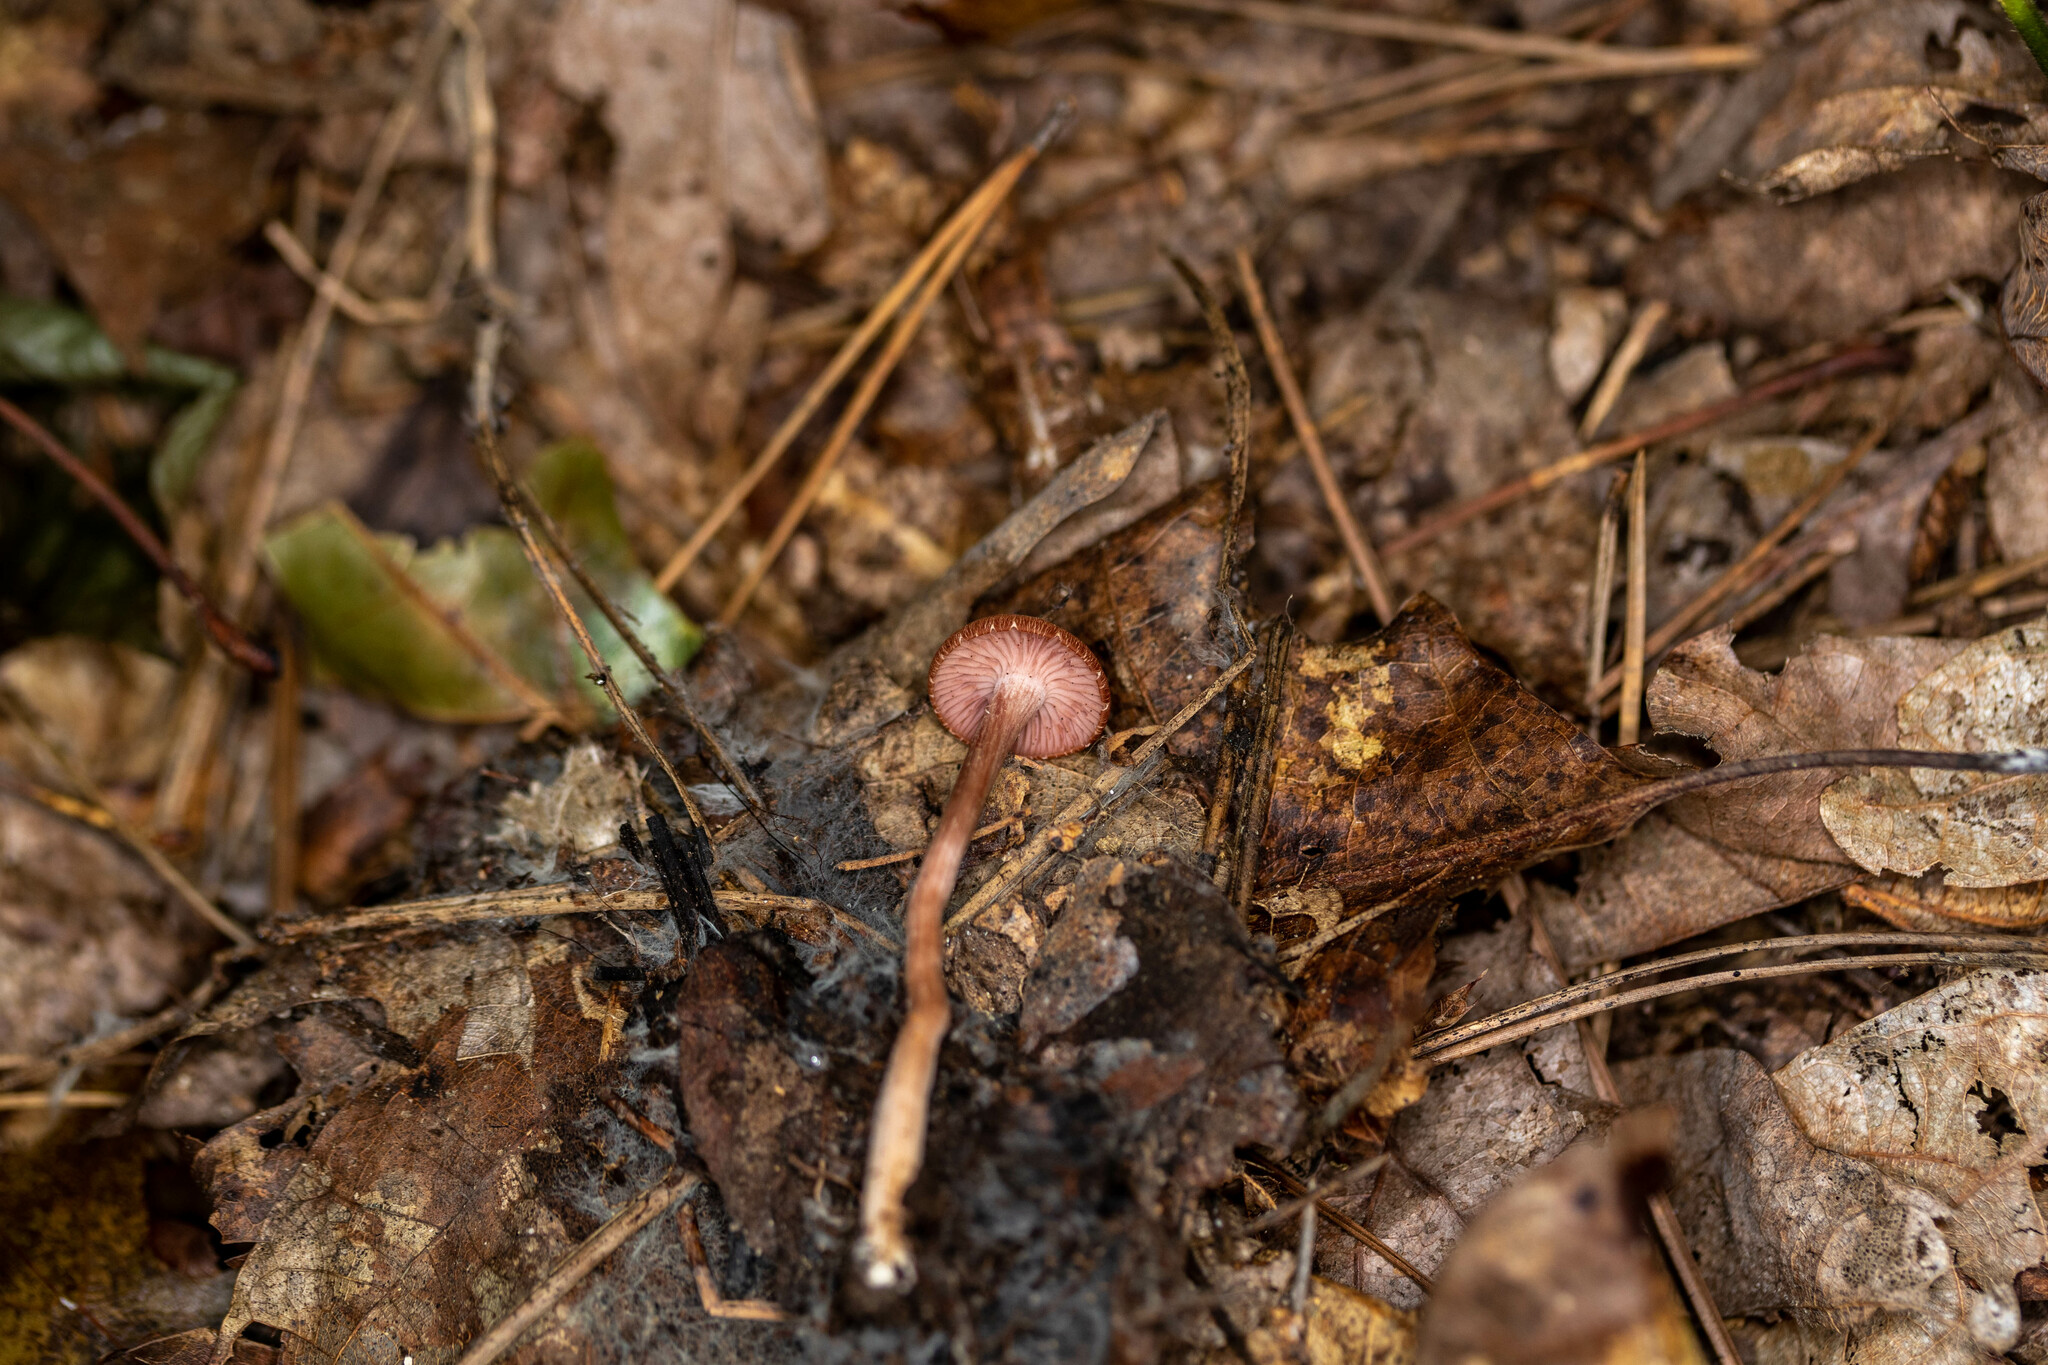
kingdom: Fungi
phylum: Basidiomycota
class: Agaricomycetes
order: Agaricales
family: Hydnangiaceae
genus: Laccaria
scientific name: Laccaria laccata
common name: Deceiver
